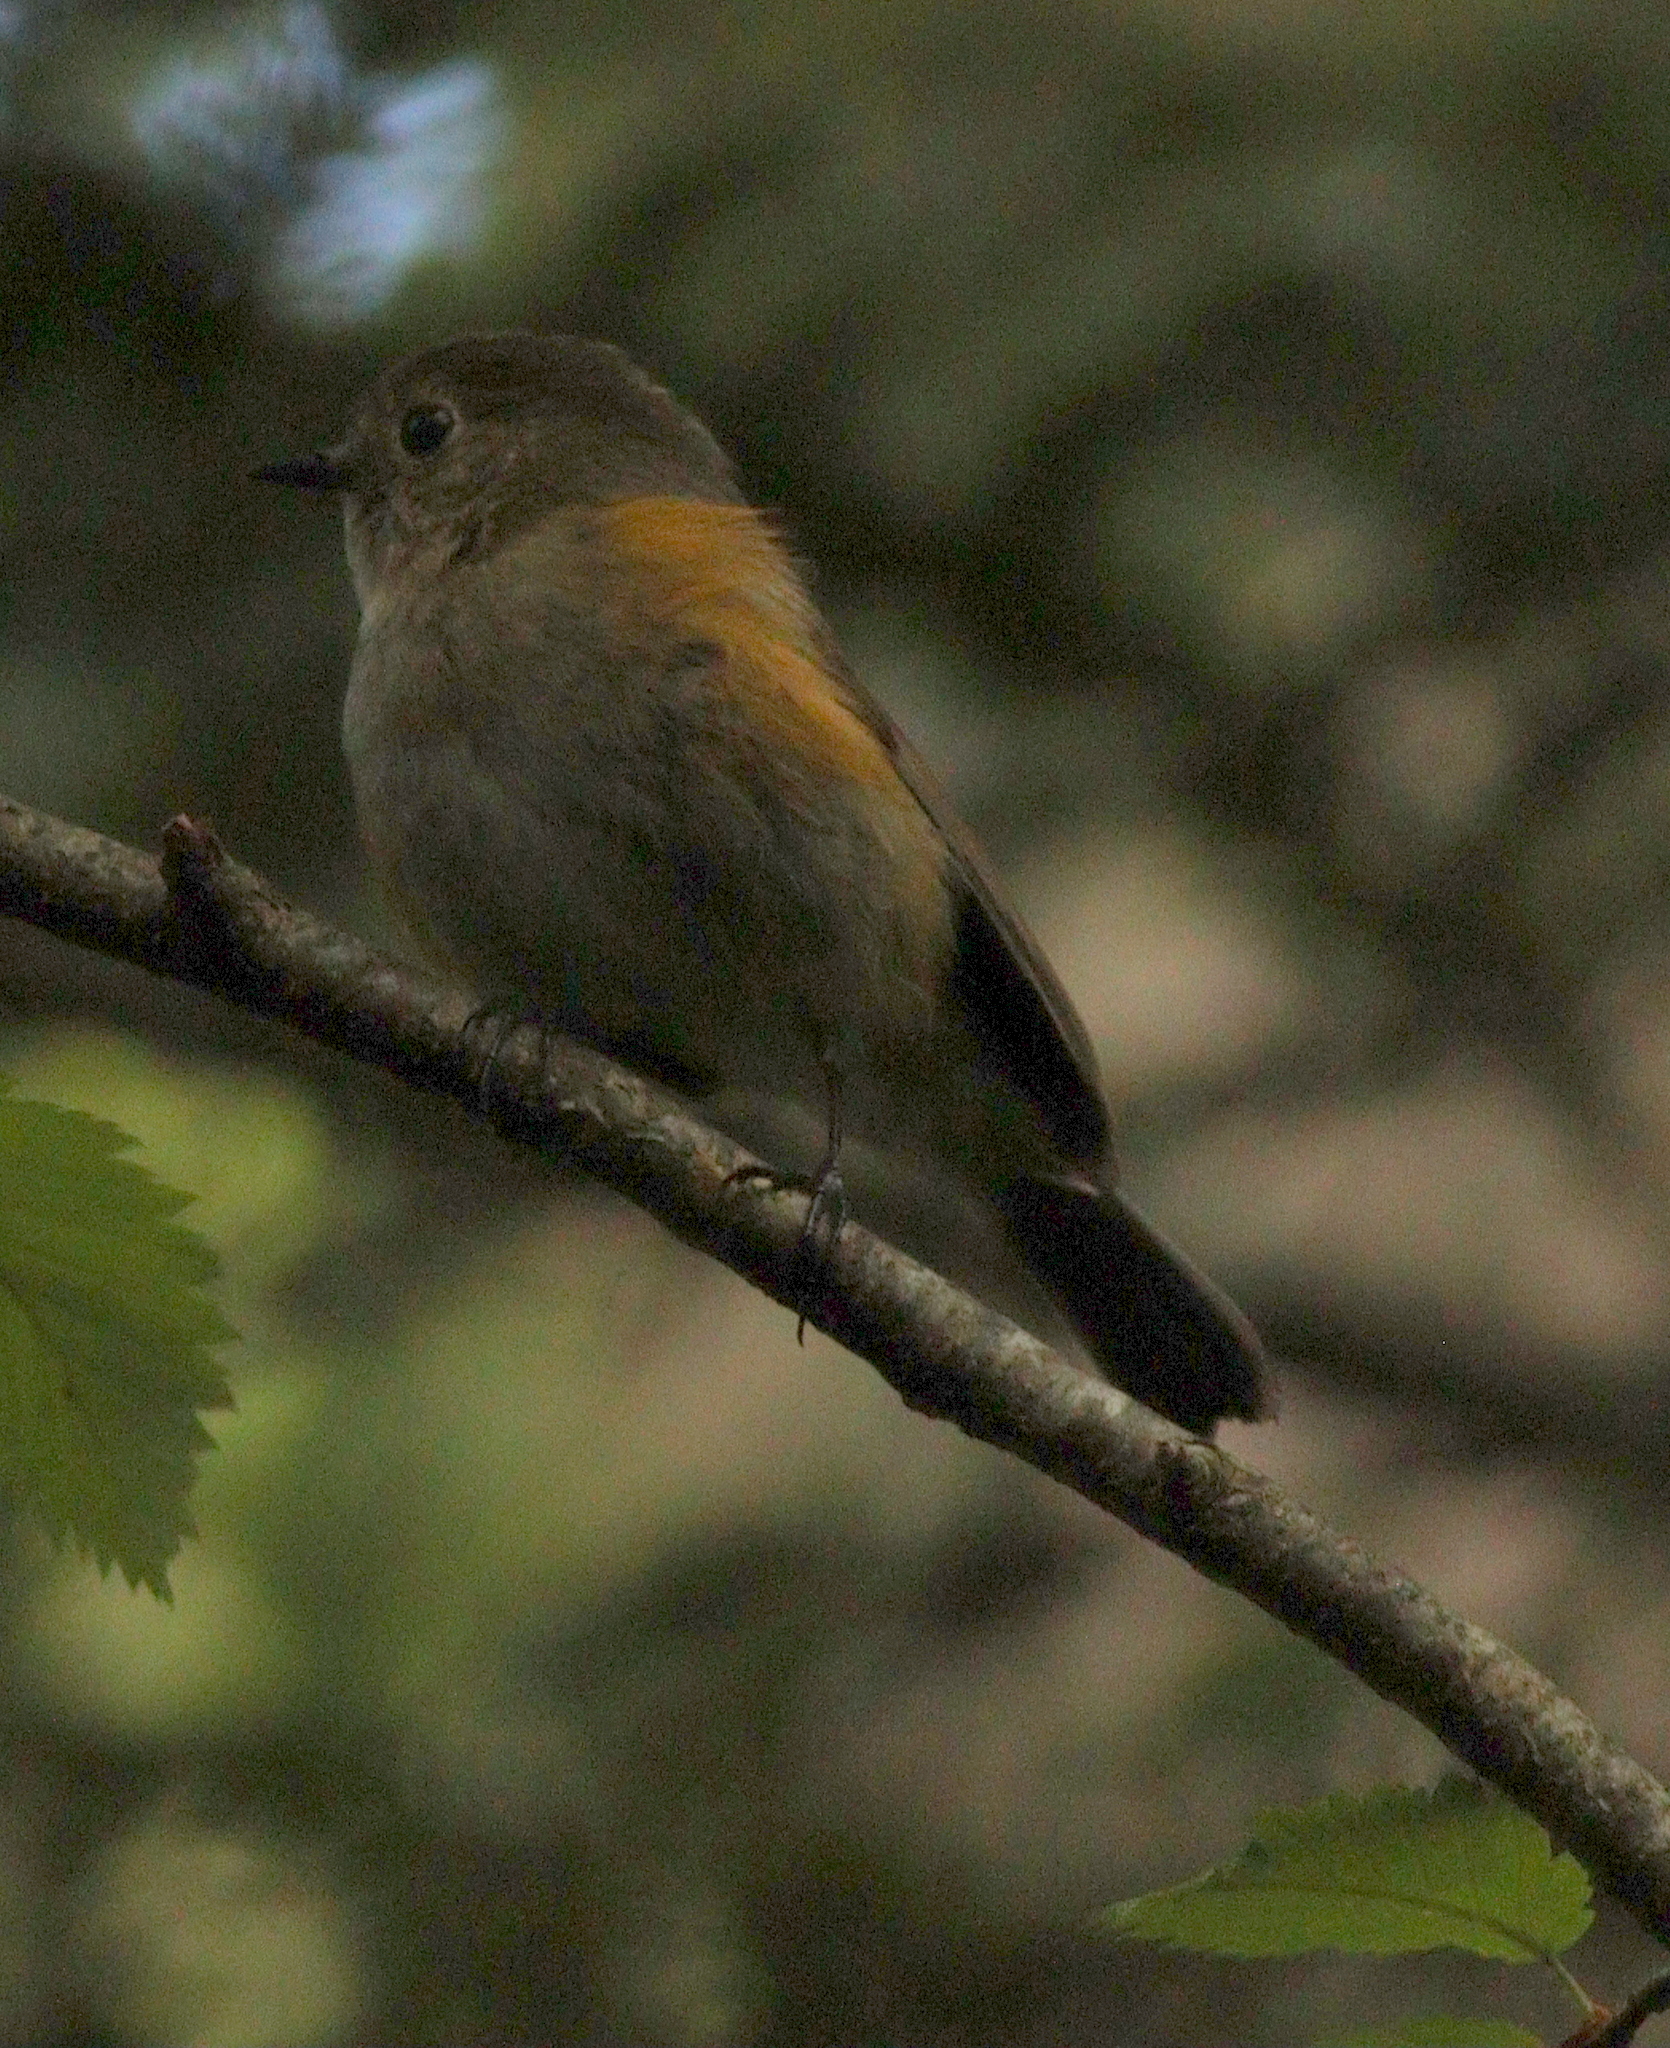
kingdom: Animalia
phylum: Chordata
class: Aves
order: Passeriformes
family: Muscicapidae
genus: Tarsiger
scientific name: Tarsiger cyanurus
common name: Red-flanked bluetail
